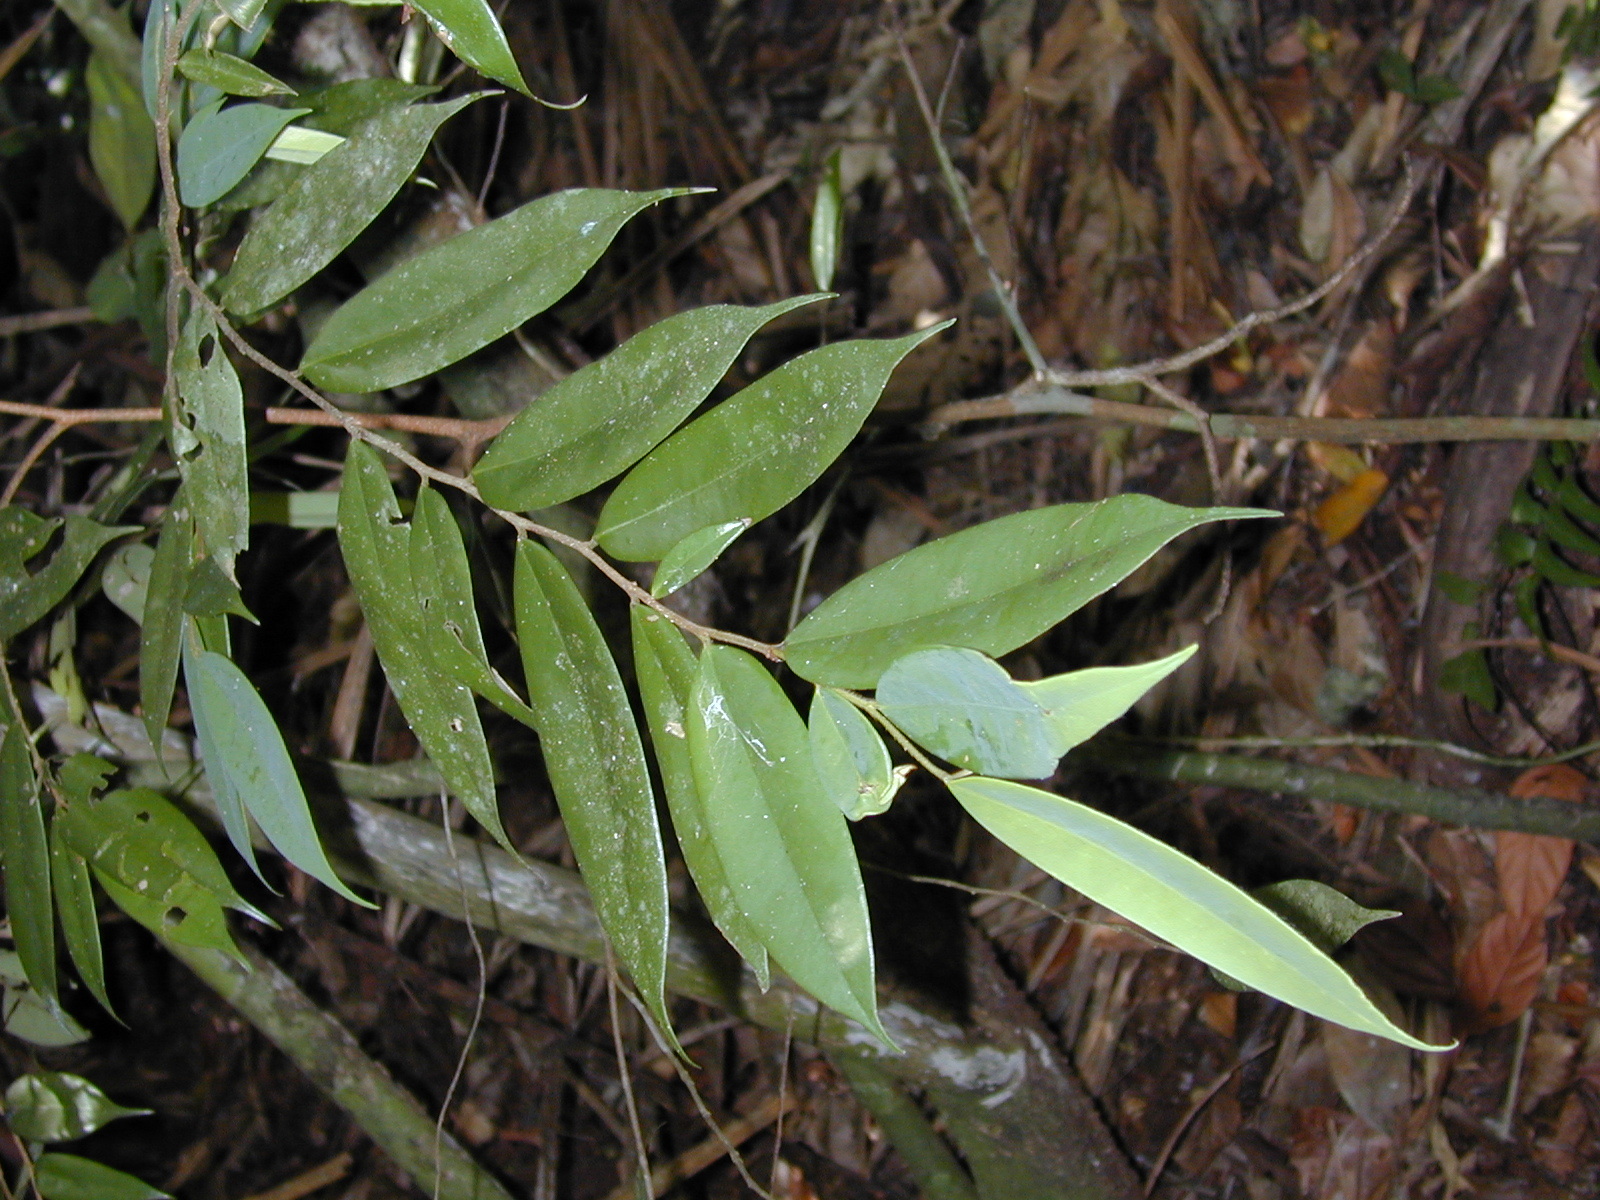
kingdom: Plantae
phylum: Tracheophyta
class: Magnoliopsida
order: Magnoliales
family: Annonaceae
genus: Xylopia
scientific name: Xylopia macrantha
